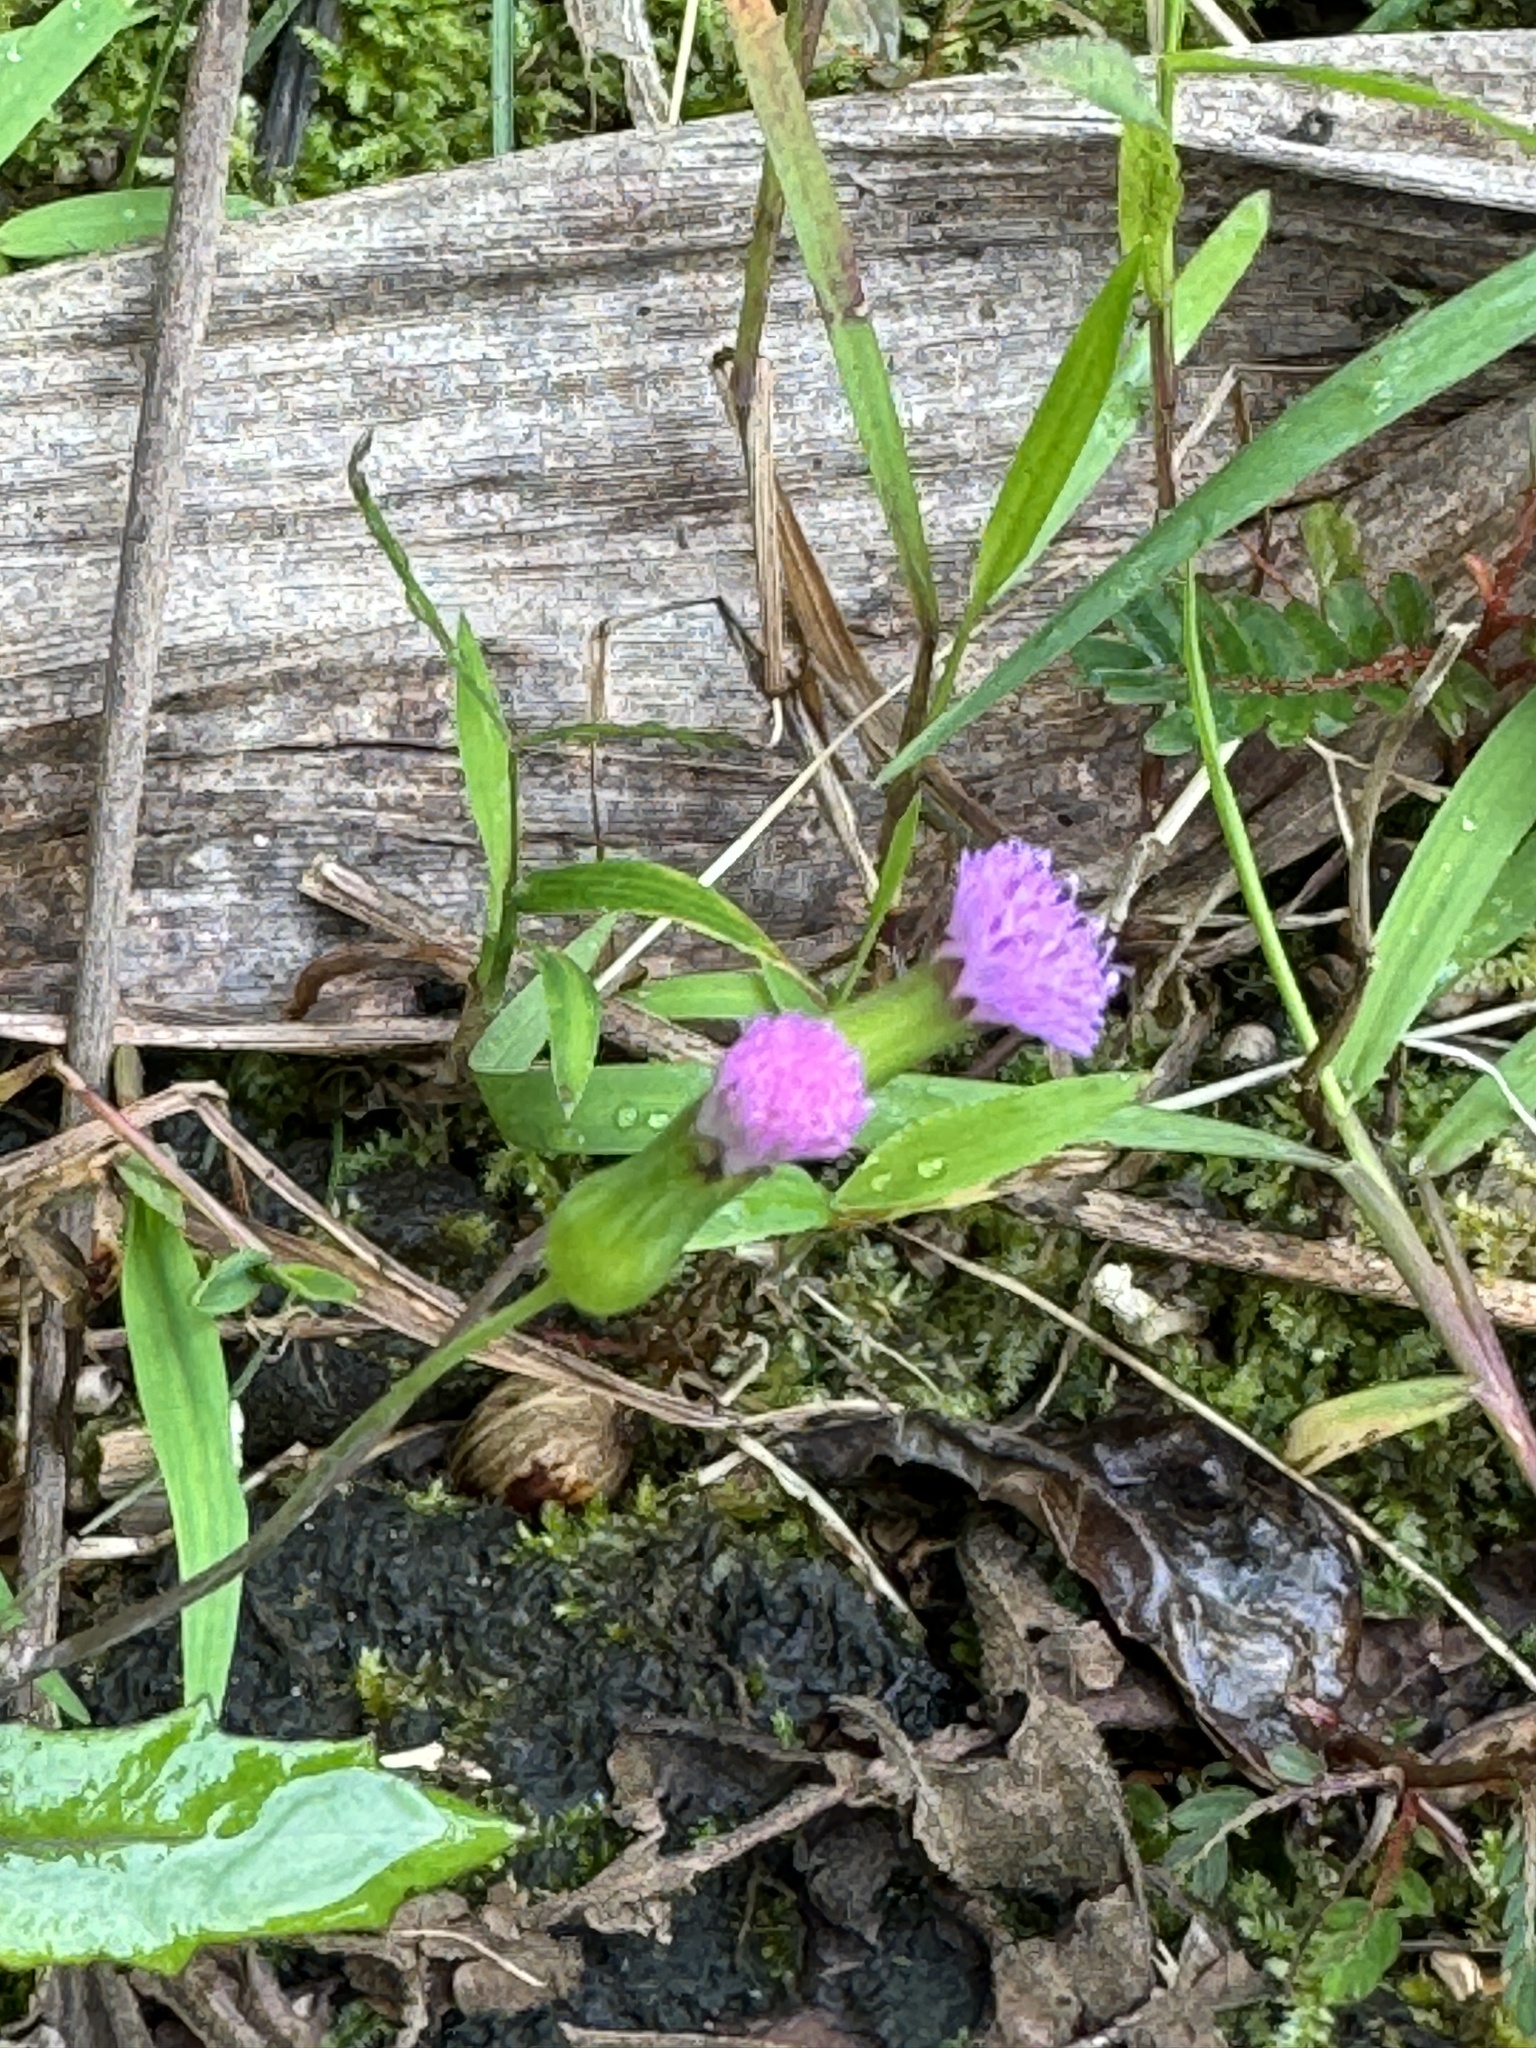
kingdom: Plantae
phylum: Tracheophyta
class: Magnoliopsida
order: Asterales
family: Asteraceae
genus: Emilia
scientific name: Emilia sonchifolia
